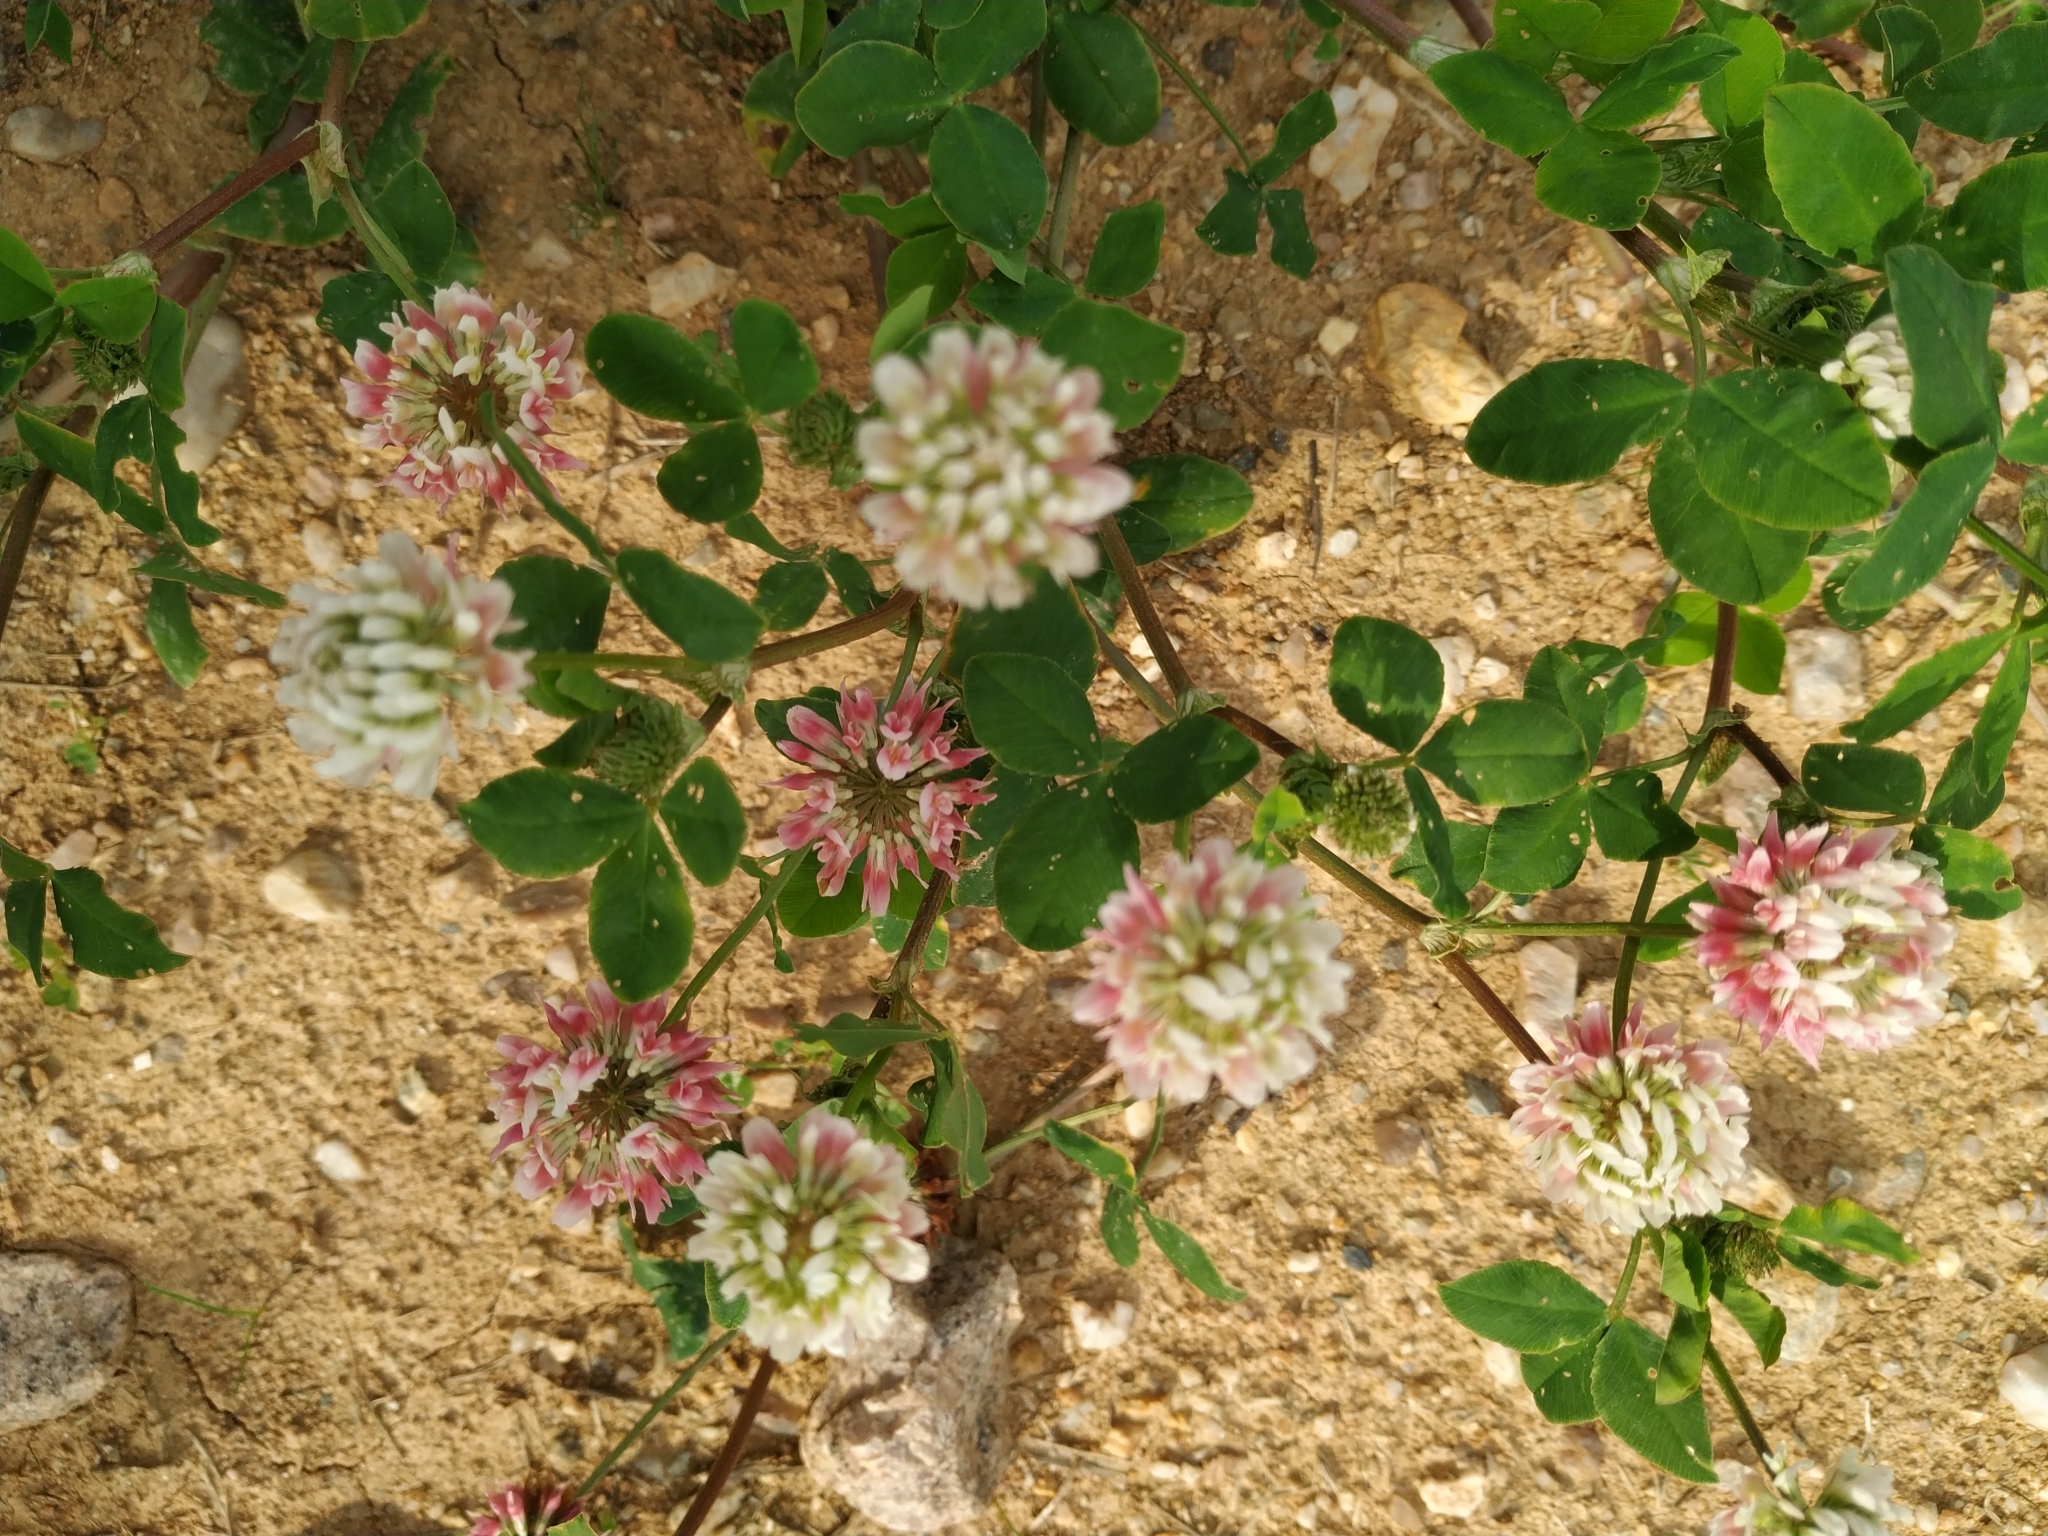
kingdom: Plantae
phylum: Tracheophyta
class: Magnoliopsida
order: Fabales
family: Fabaceae
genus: Trifolium
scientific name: Trifolium hybridum
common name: Alsike clover
